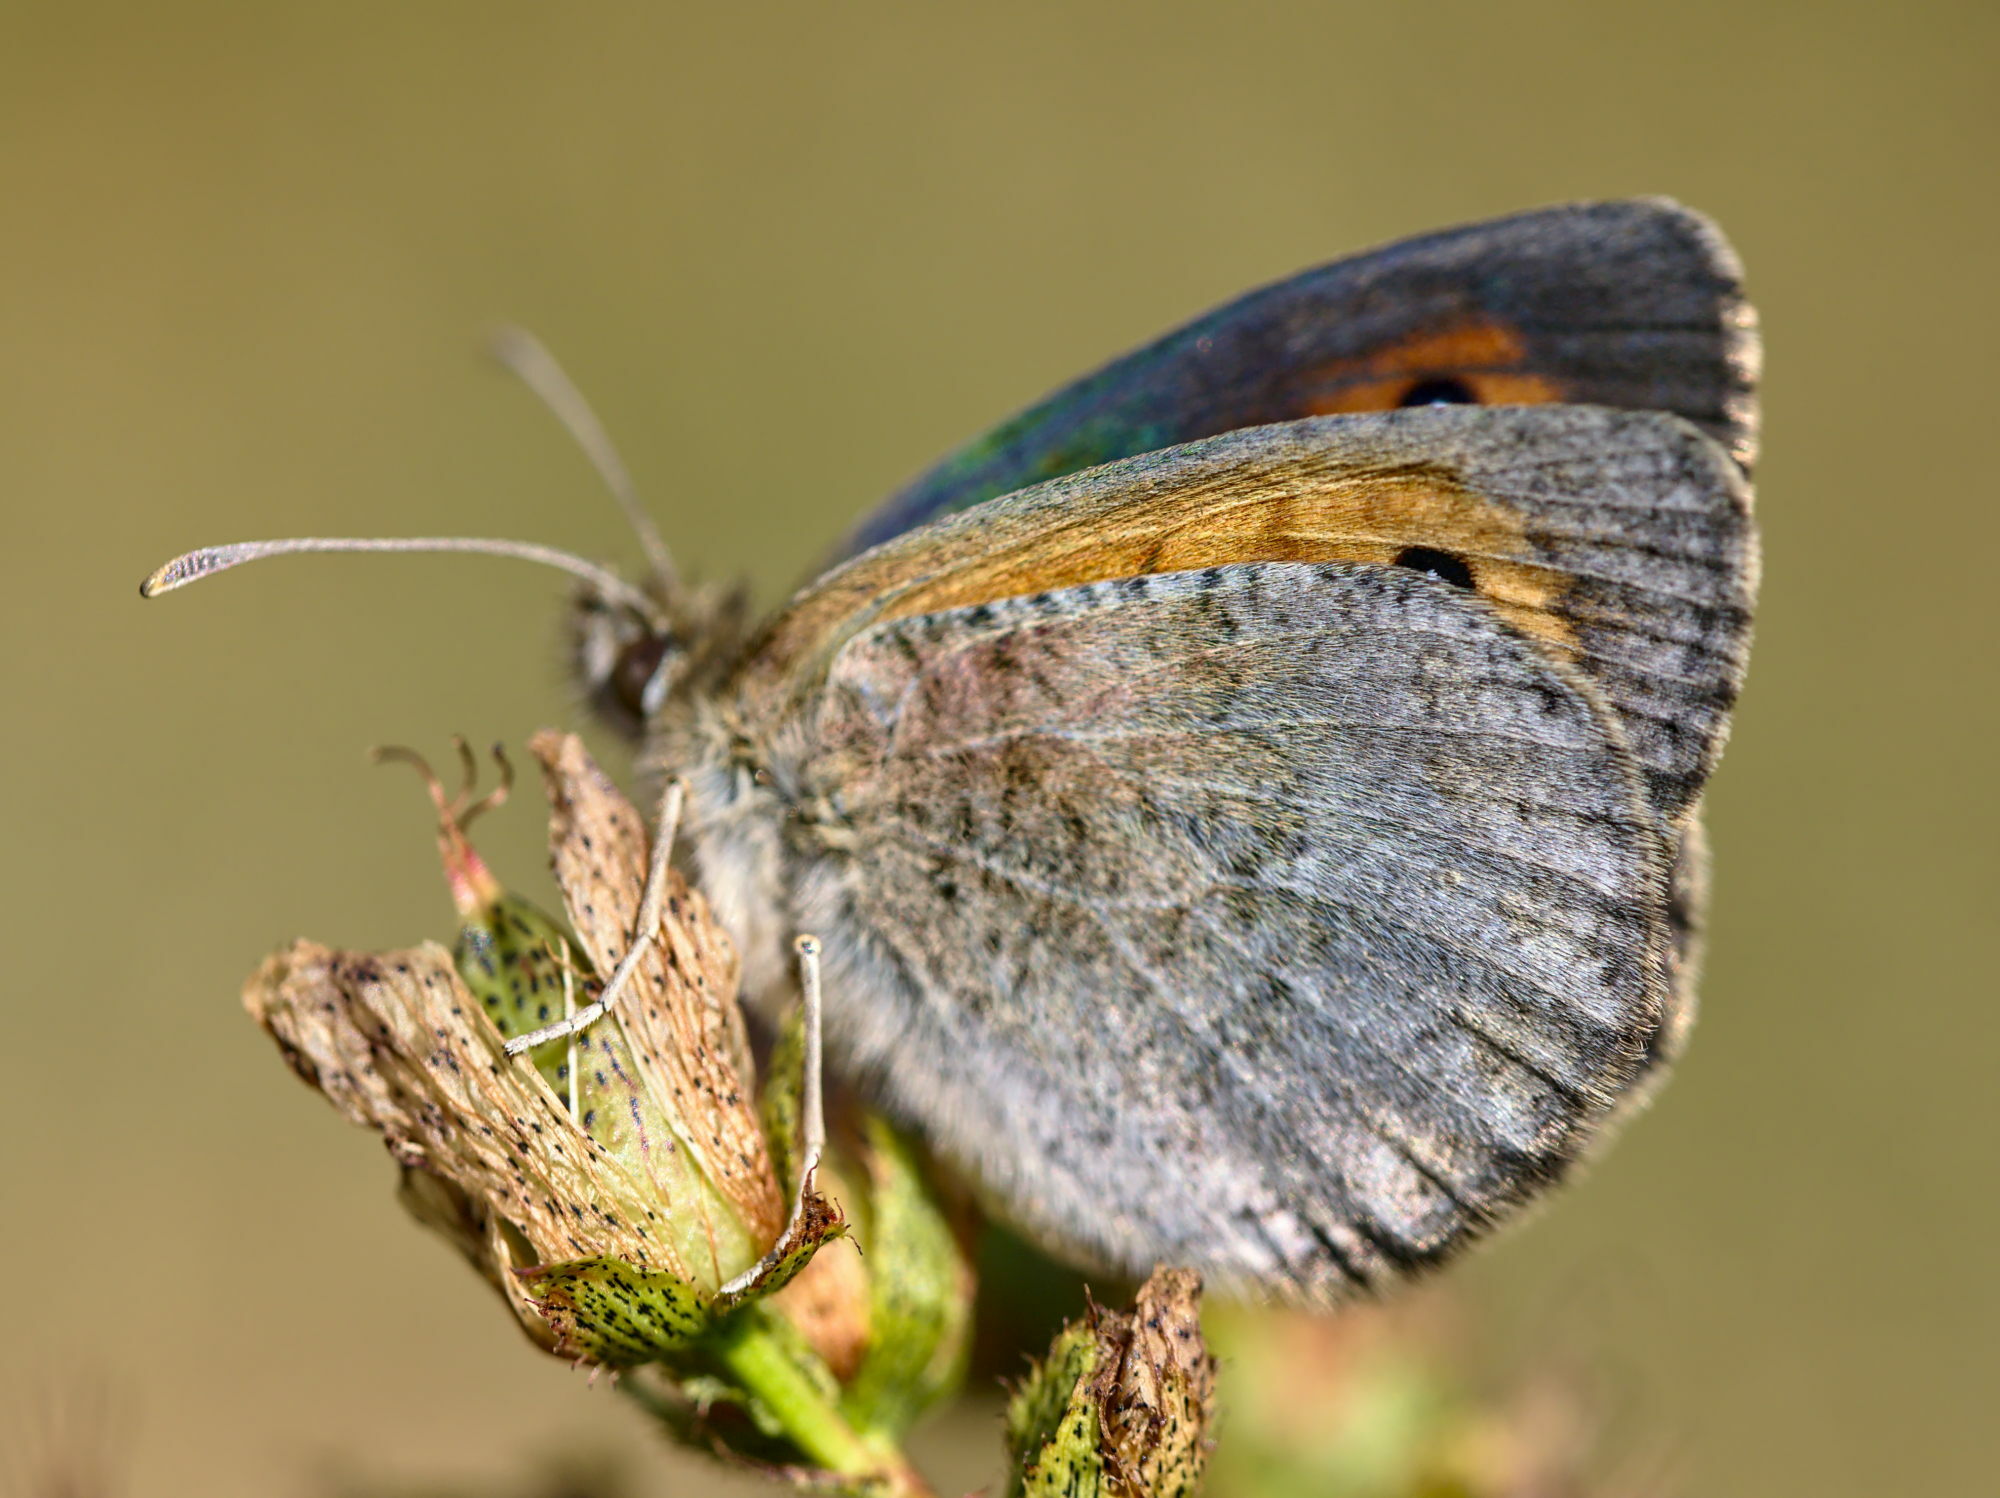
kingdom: Animalia
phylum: Arthropoda
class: Insecta
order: Lepidoptera
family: Nymphalidae
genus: Erebia
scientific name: Erebia cassioides
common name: Common brassy ringlet
